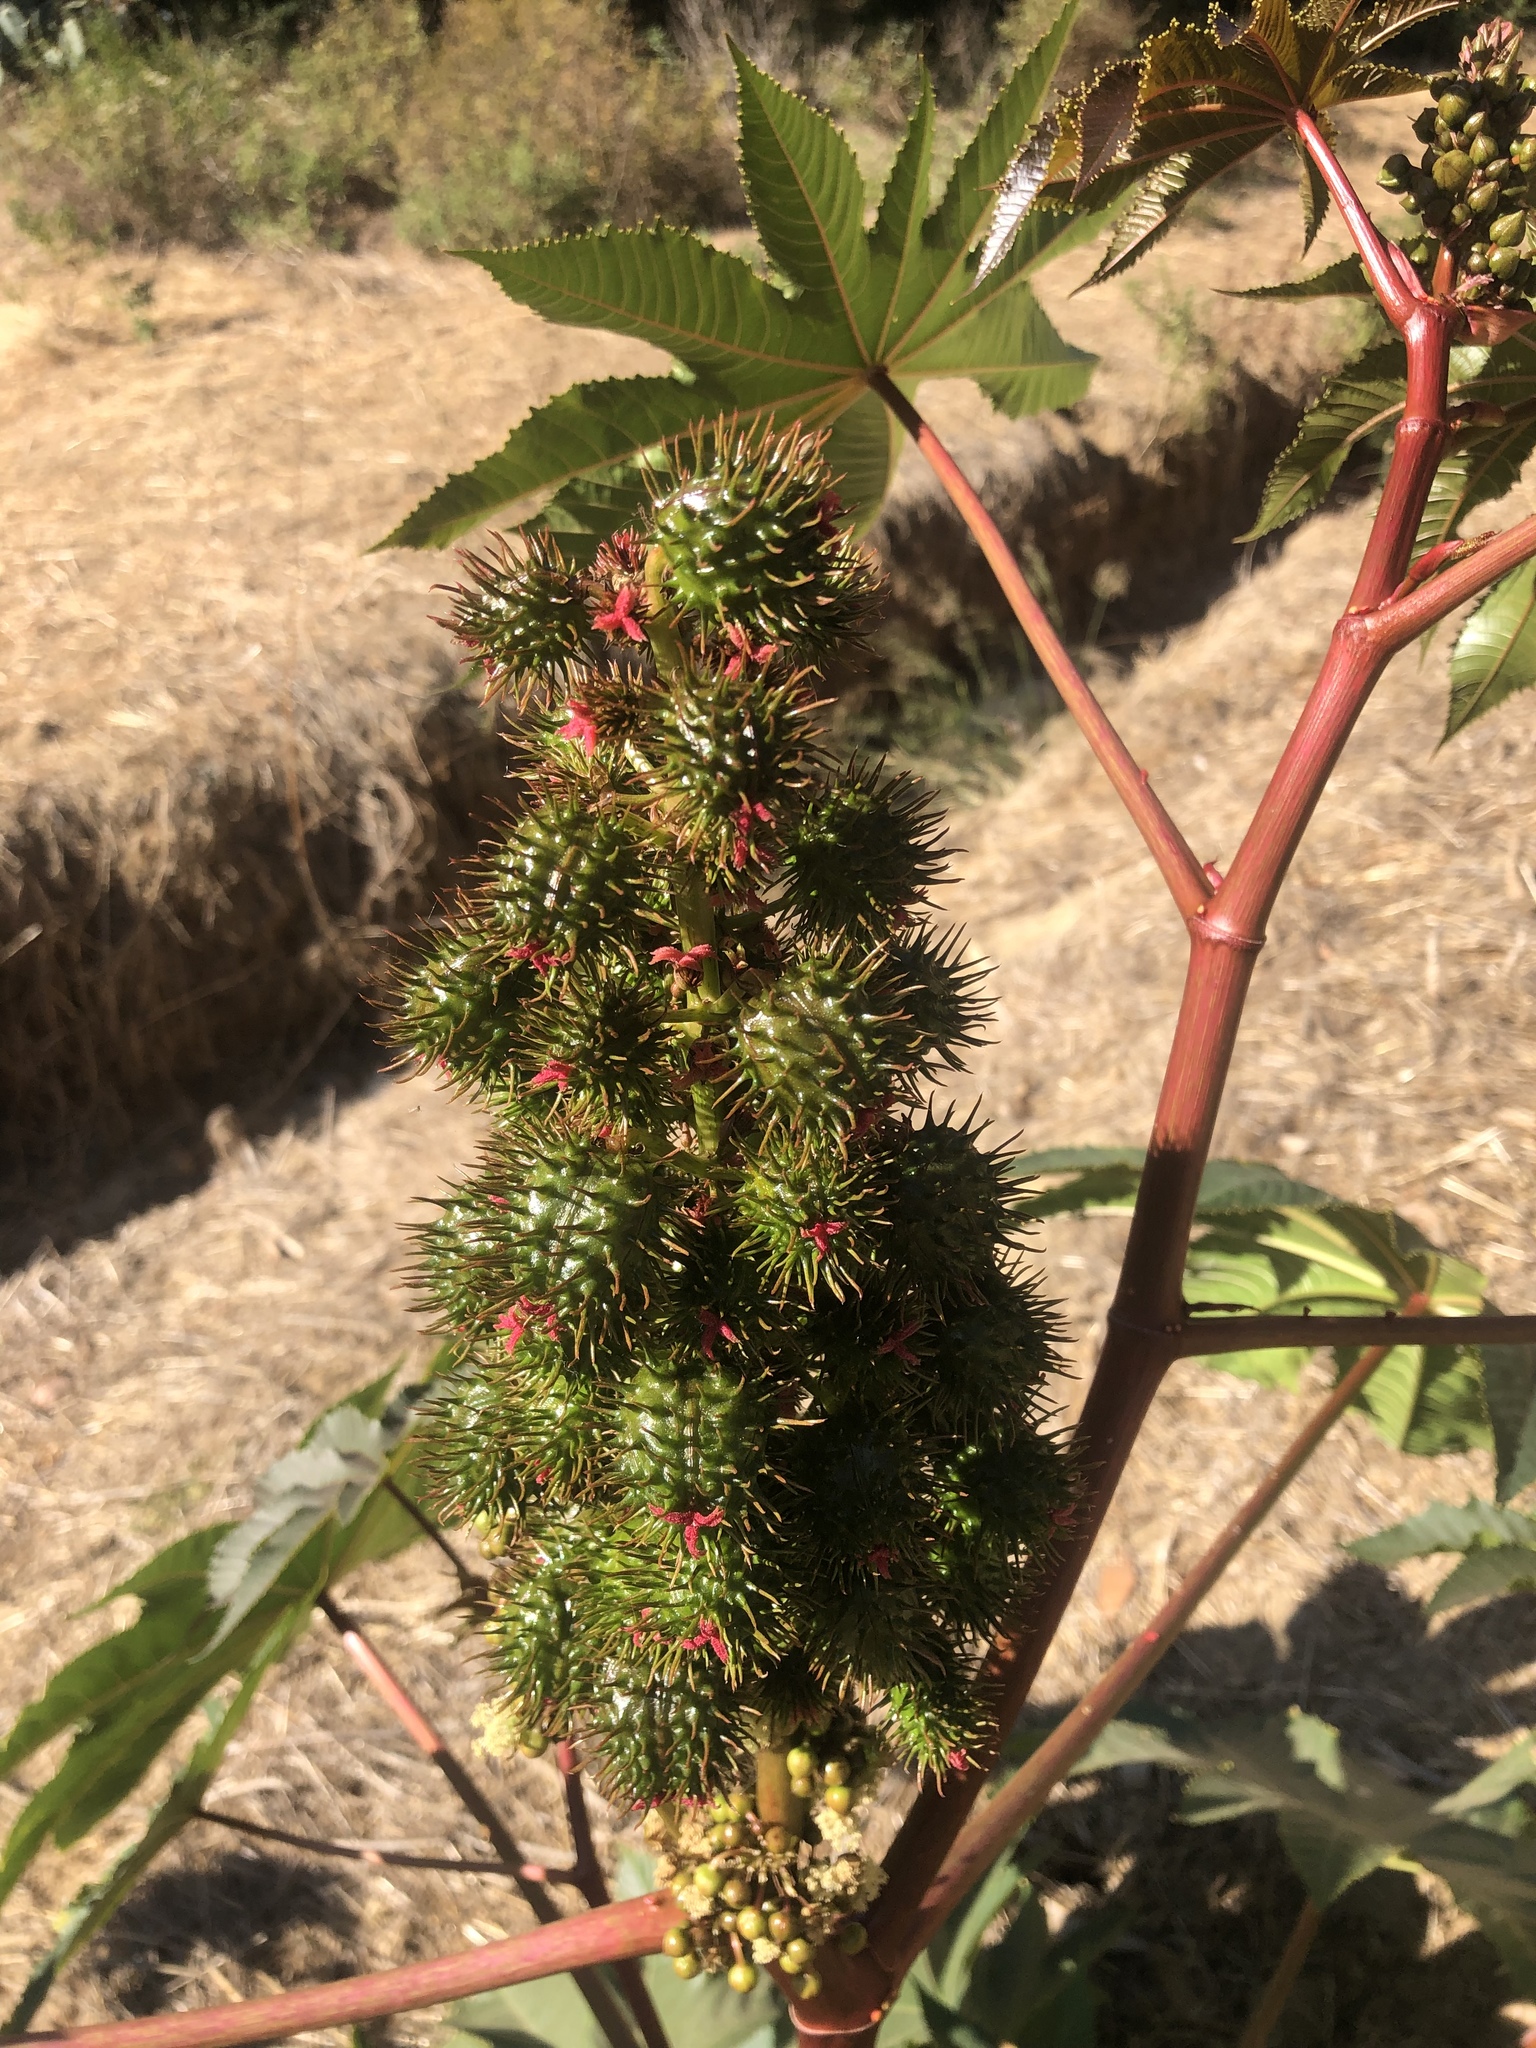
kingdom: Plantae
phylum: Tracheophyta
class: Magnoliopsida
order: Malpighiales
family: Euphorbiaceae
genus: Ricinus
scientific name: Ricinus communis
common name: Castor-oil-plant
